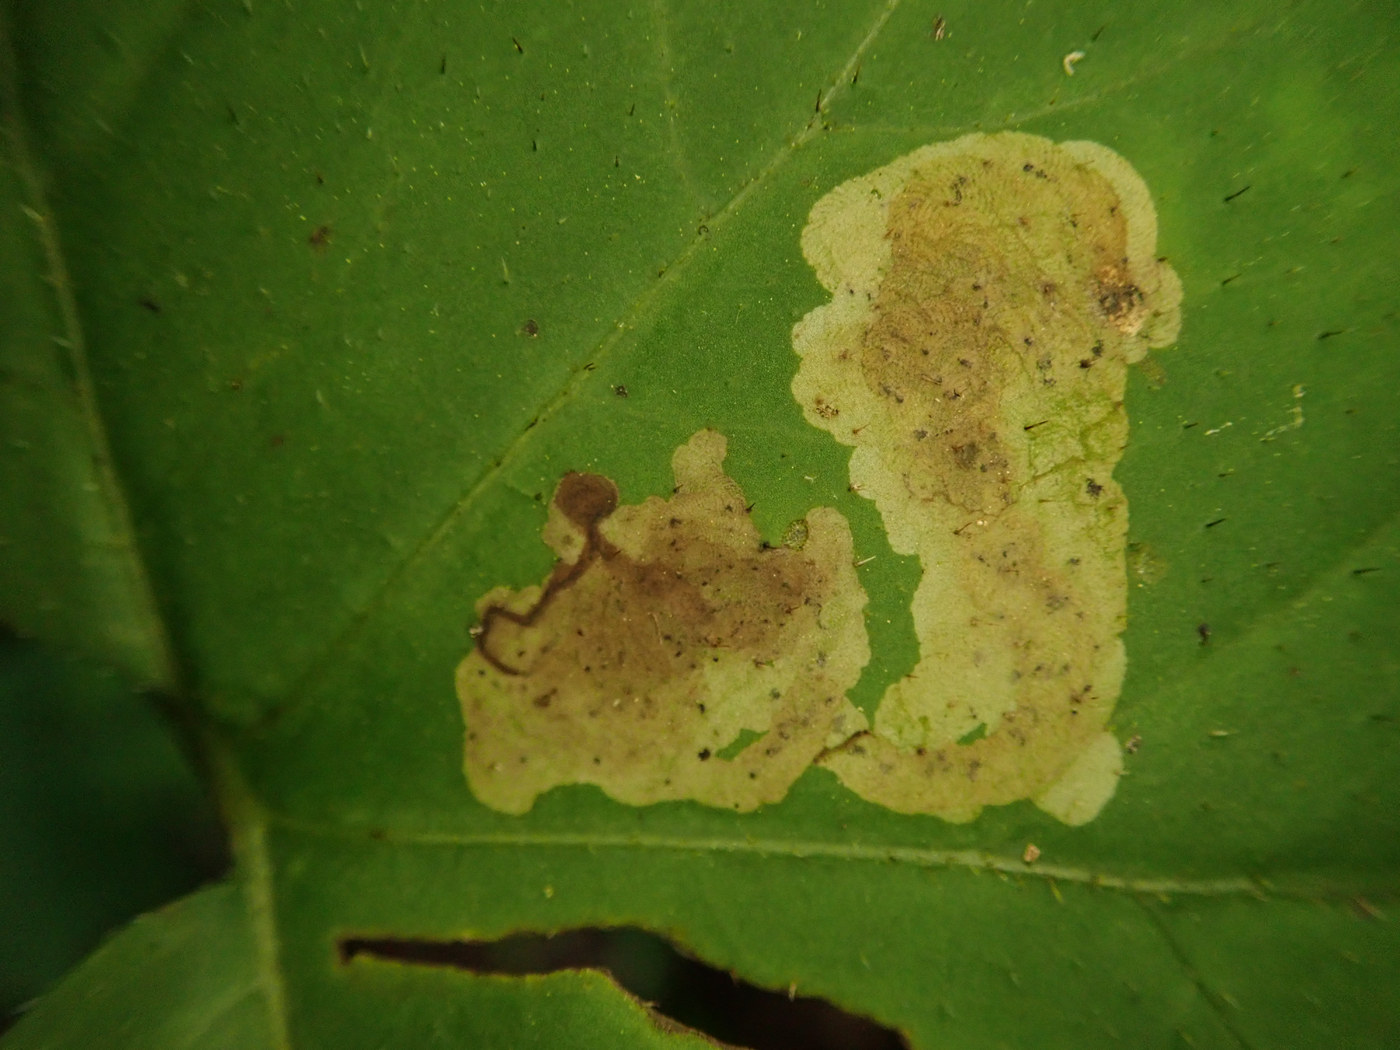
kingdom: Animalia
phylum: Arthropoda
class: Insecta
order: Diptera
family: Agromyzidae
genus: Phytomyza
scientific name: Phytomyza hydrophyllivora
